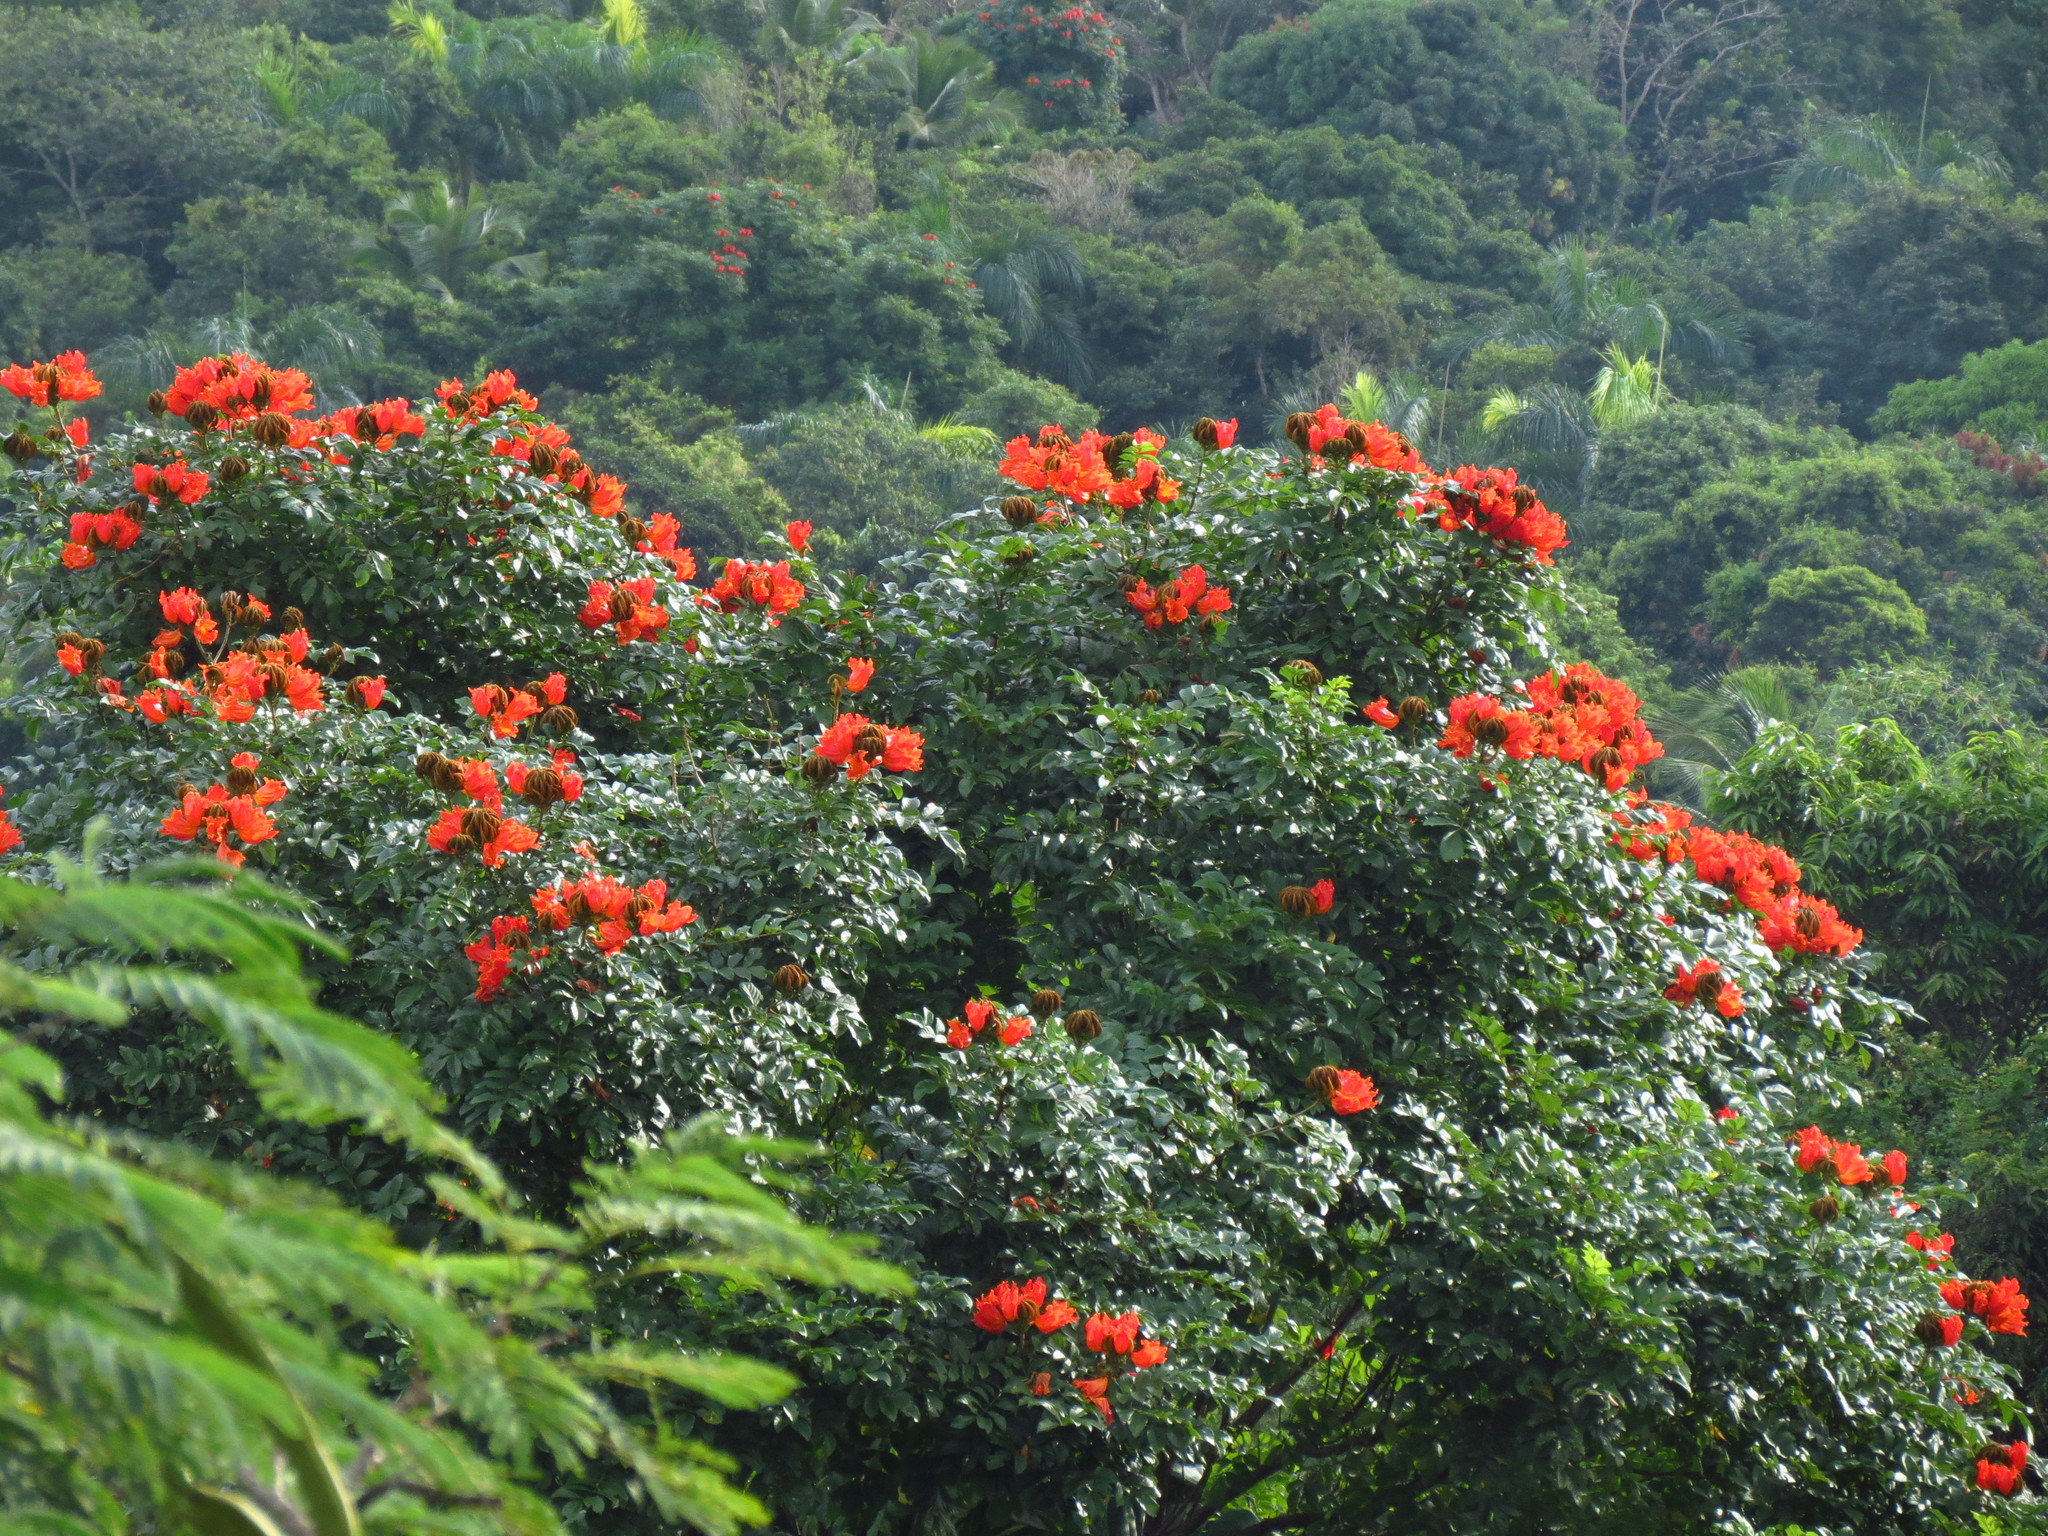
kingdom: Plantae
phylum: Tracheophyta
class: Magnoliopsida
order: Lamiales
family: Bignoniaceae
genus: Spathodea
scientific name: Spathodea campanulata
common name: African tuliptree
